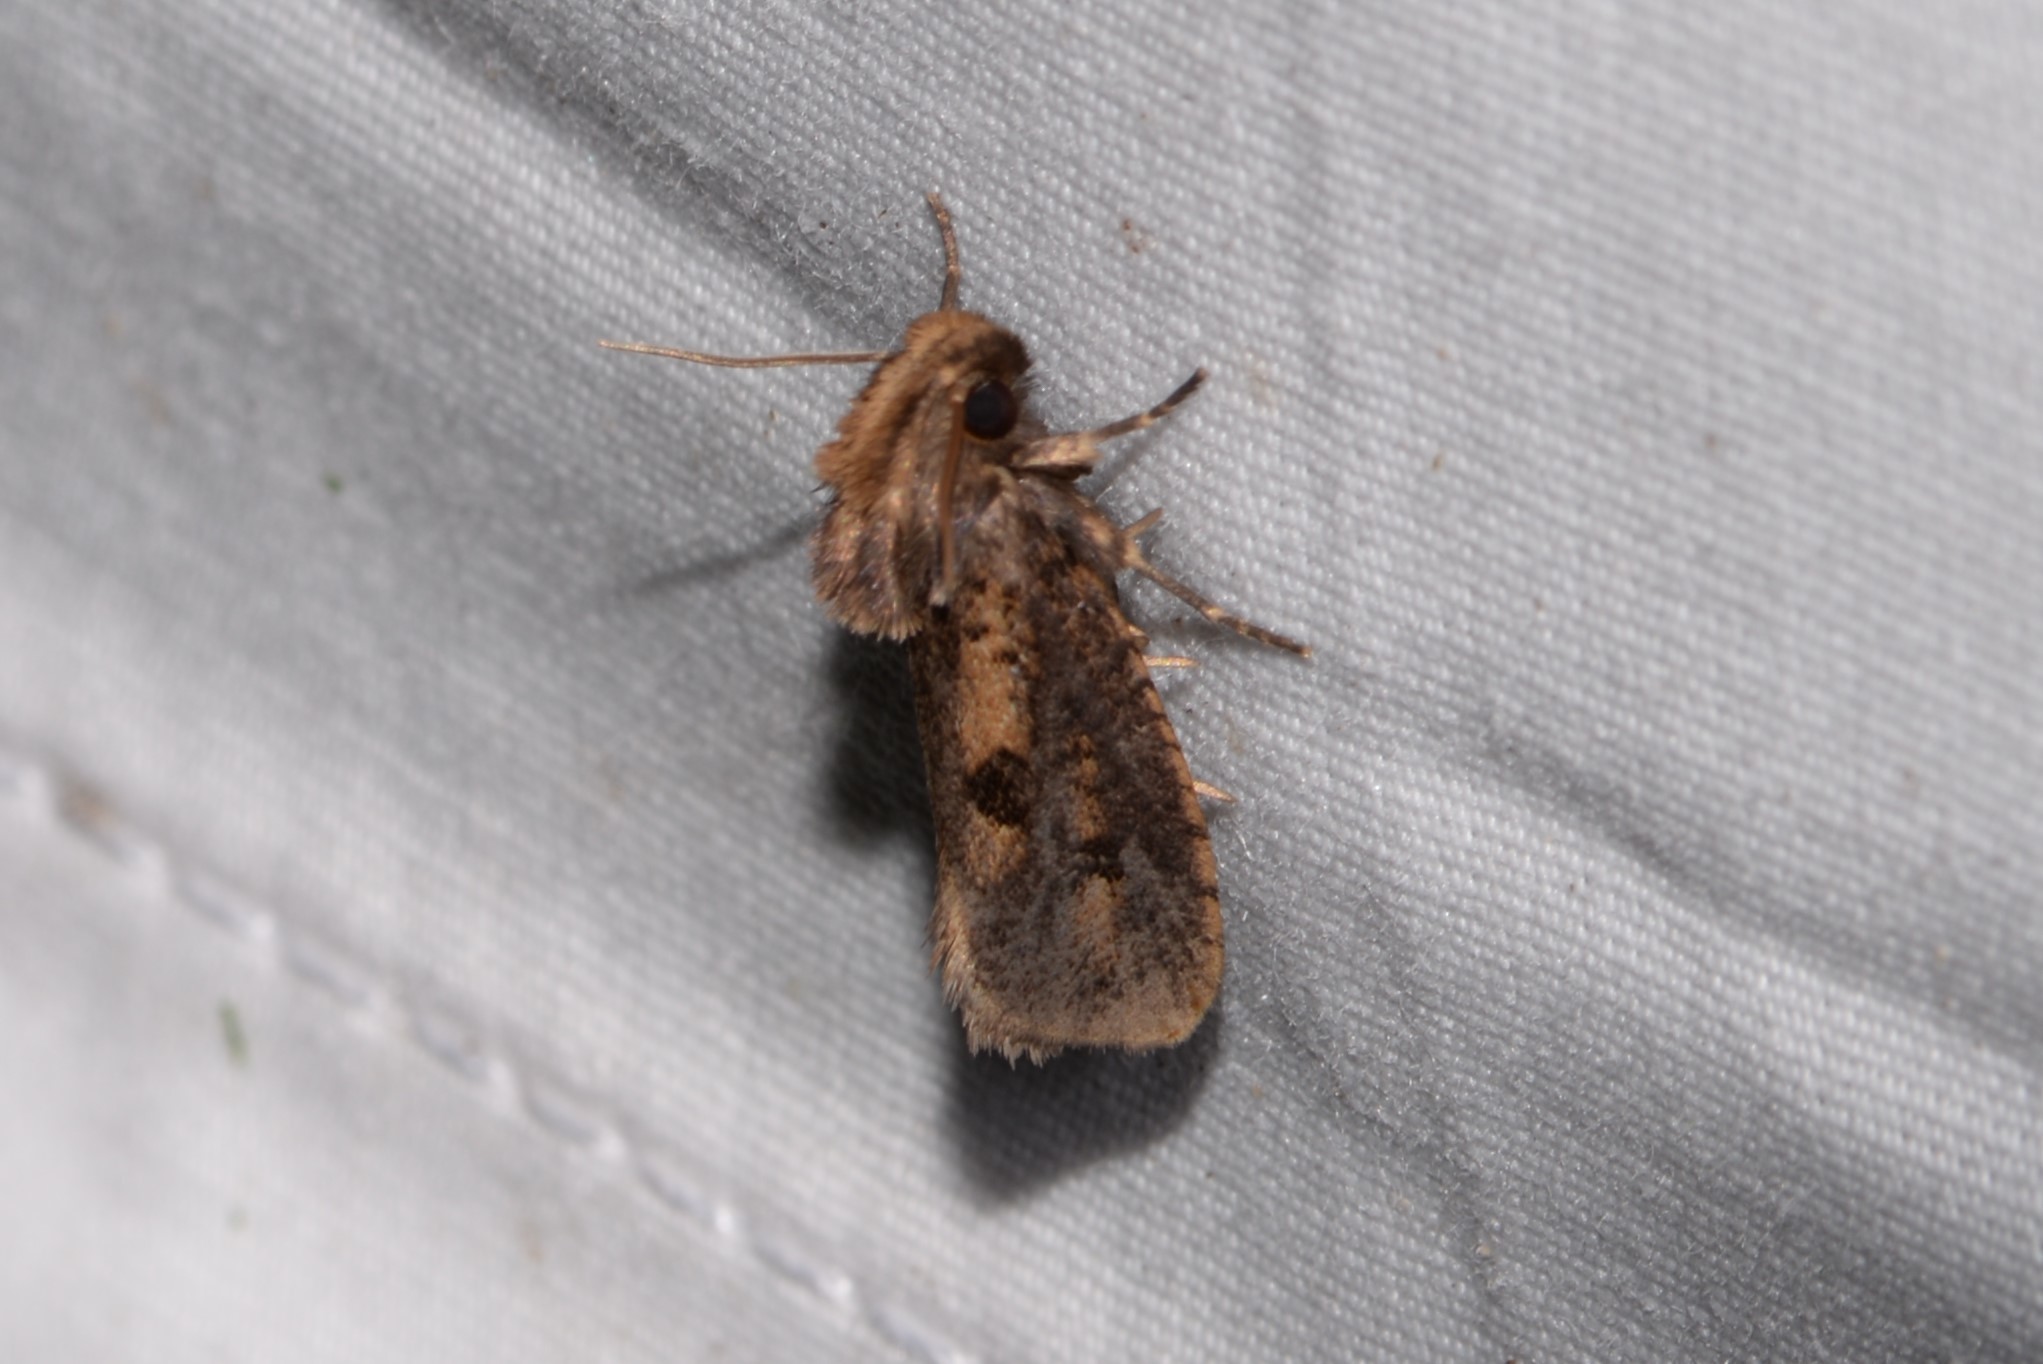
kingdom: Animalia
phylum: Arthropoda
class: Insecta
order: Lepidoptera
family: Tineidae
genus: Acrolophus
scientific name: Acrolophus popeanella
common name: Clemens' grass tubeworm moth
